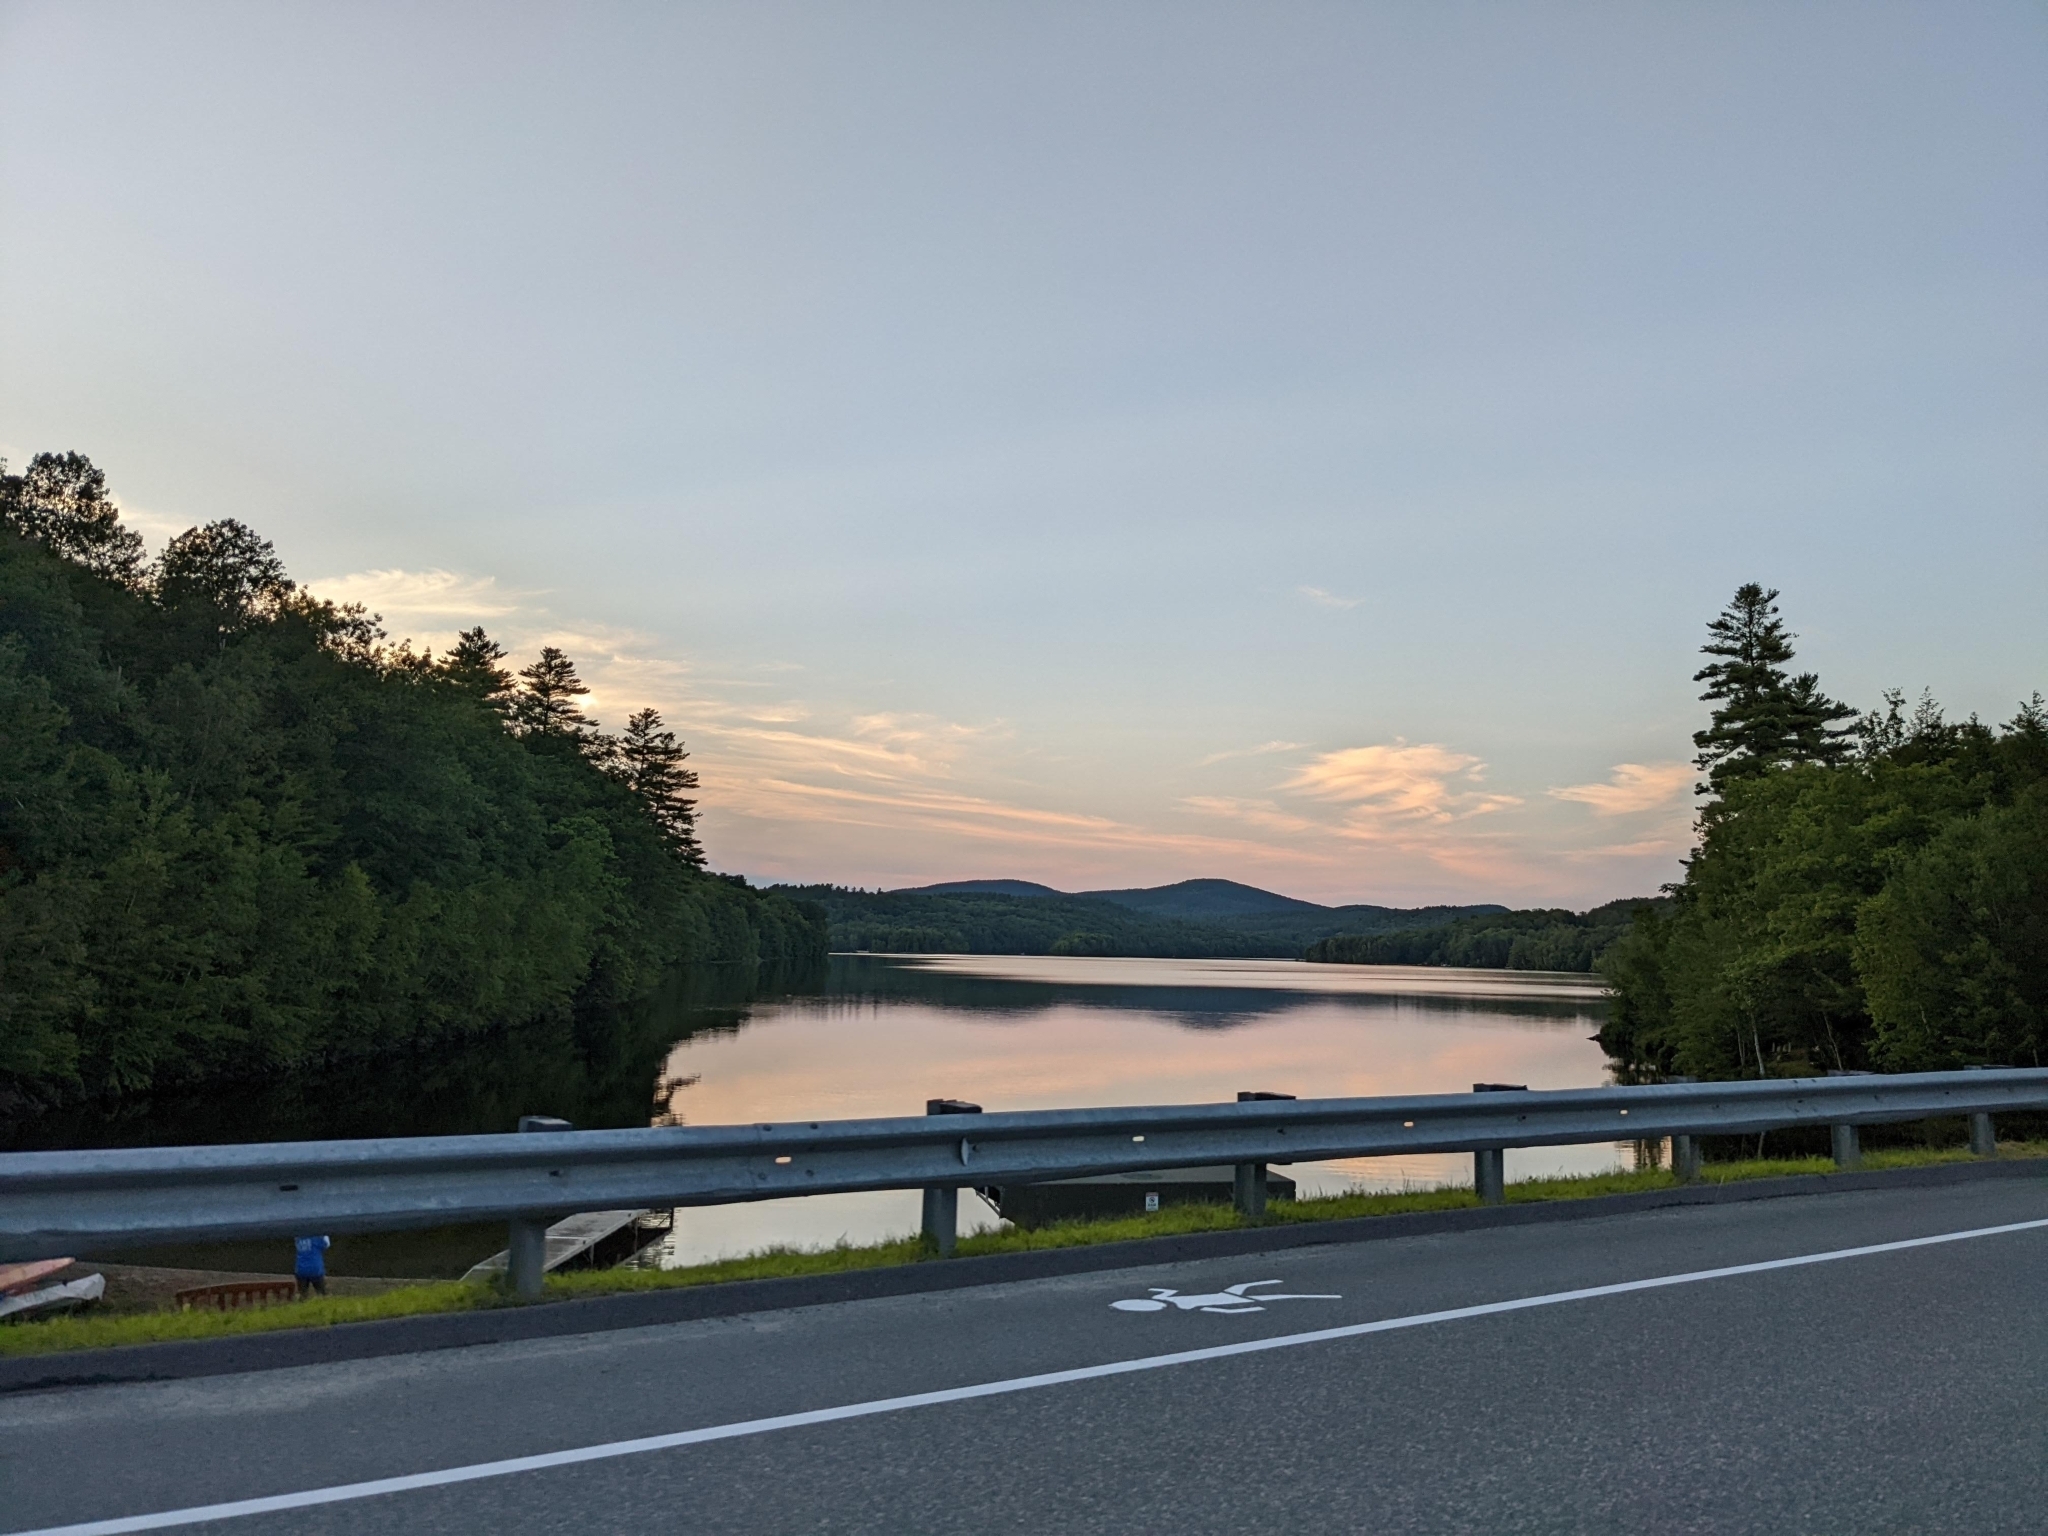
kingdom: Plantae
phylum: Tracheophyta
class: Pinopsida
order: Pinales
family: Pinaceae
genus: Pinus
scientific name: Pinus strobus
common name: Weymouth pine
